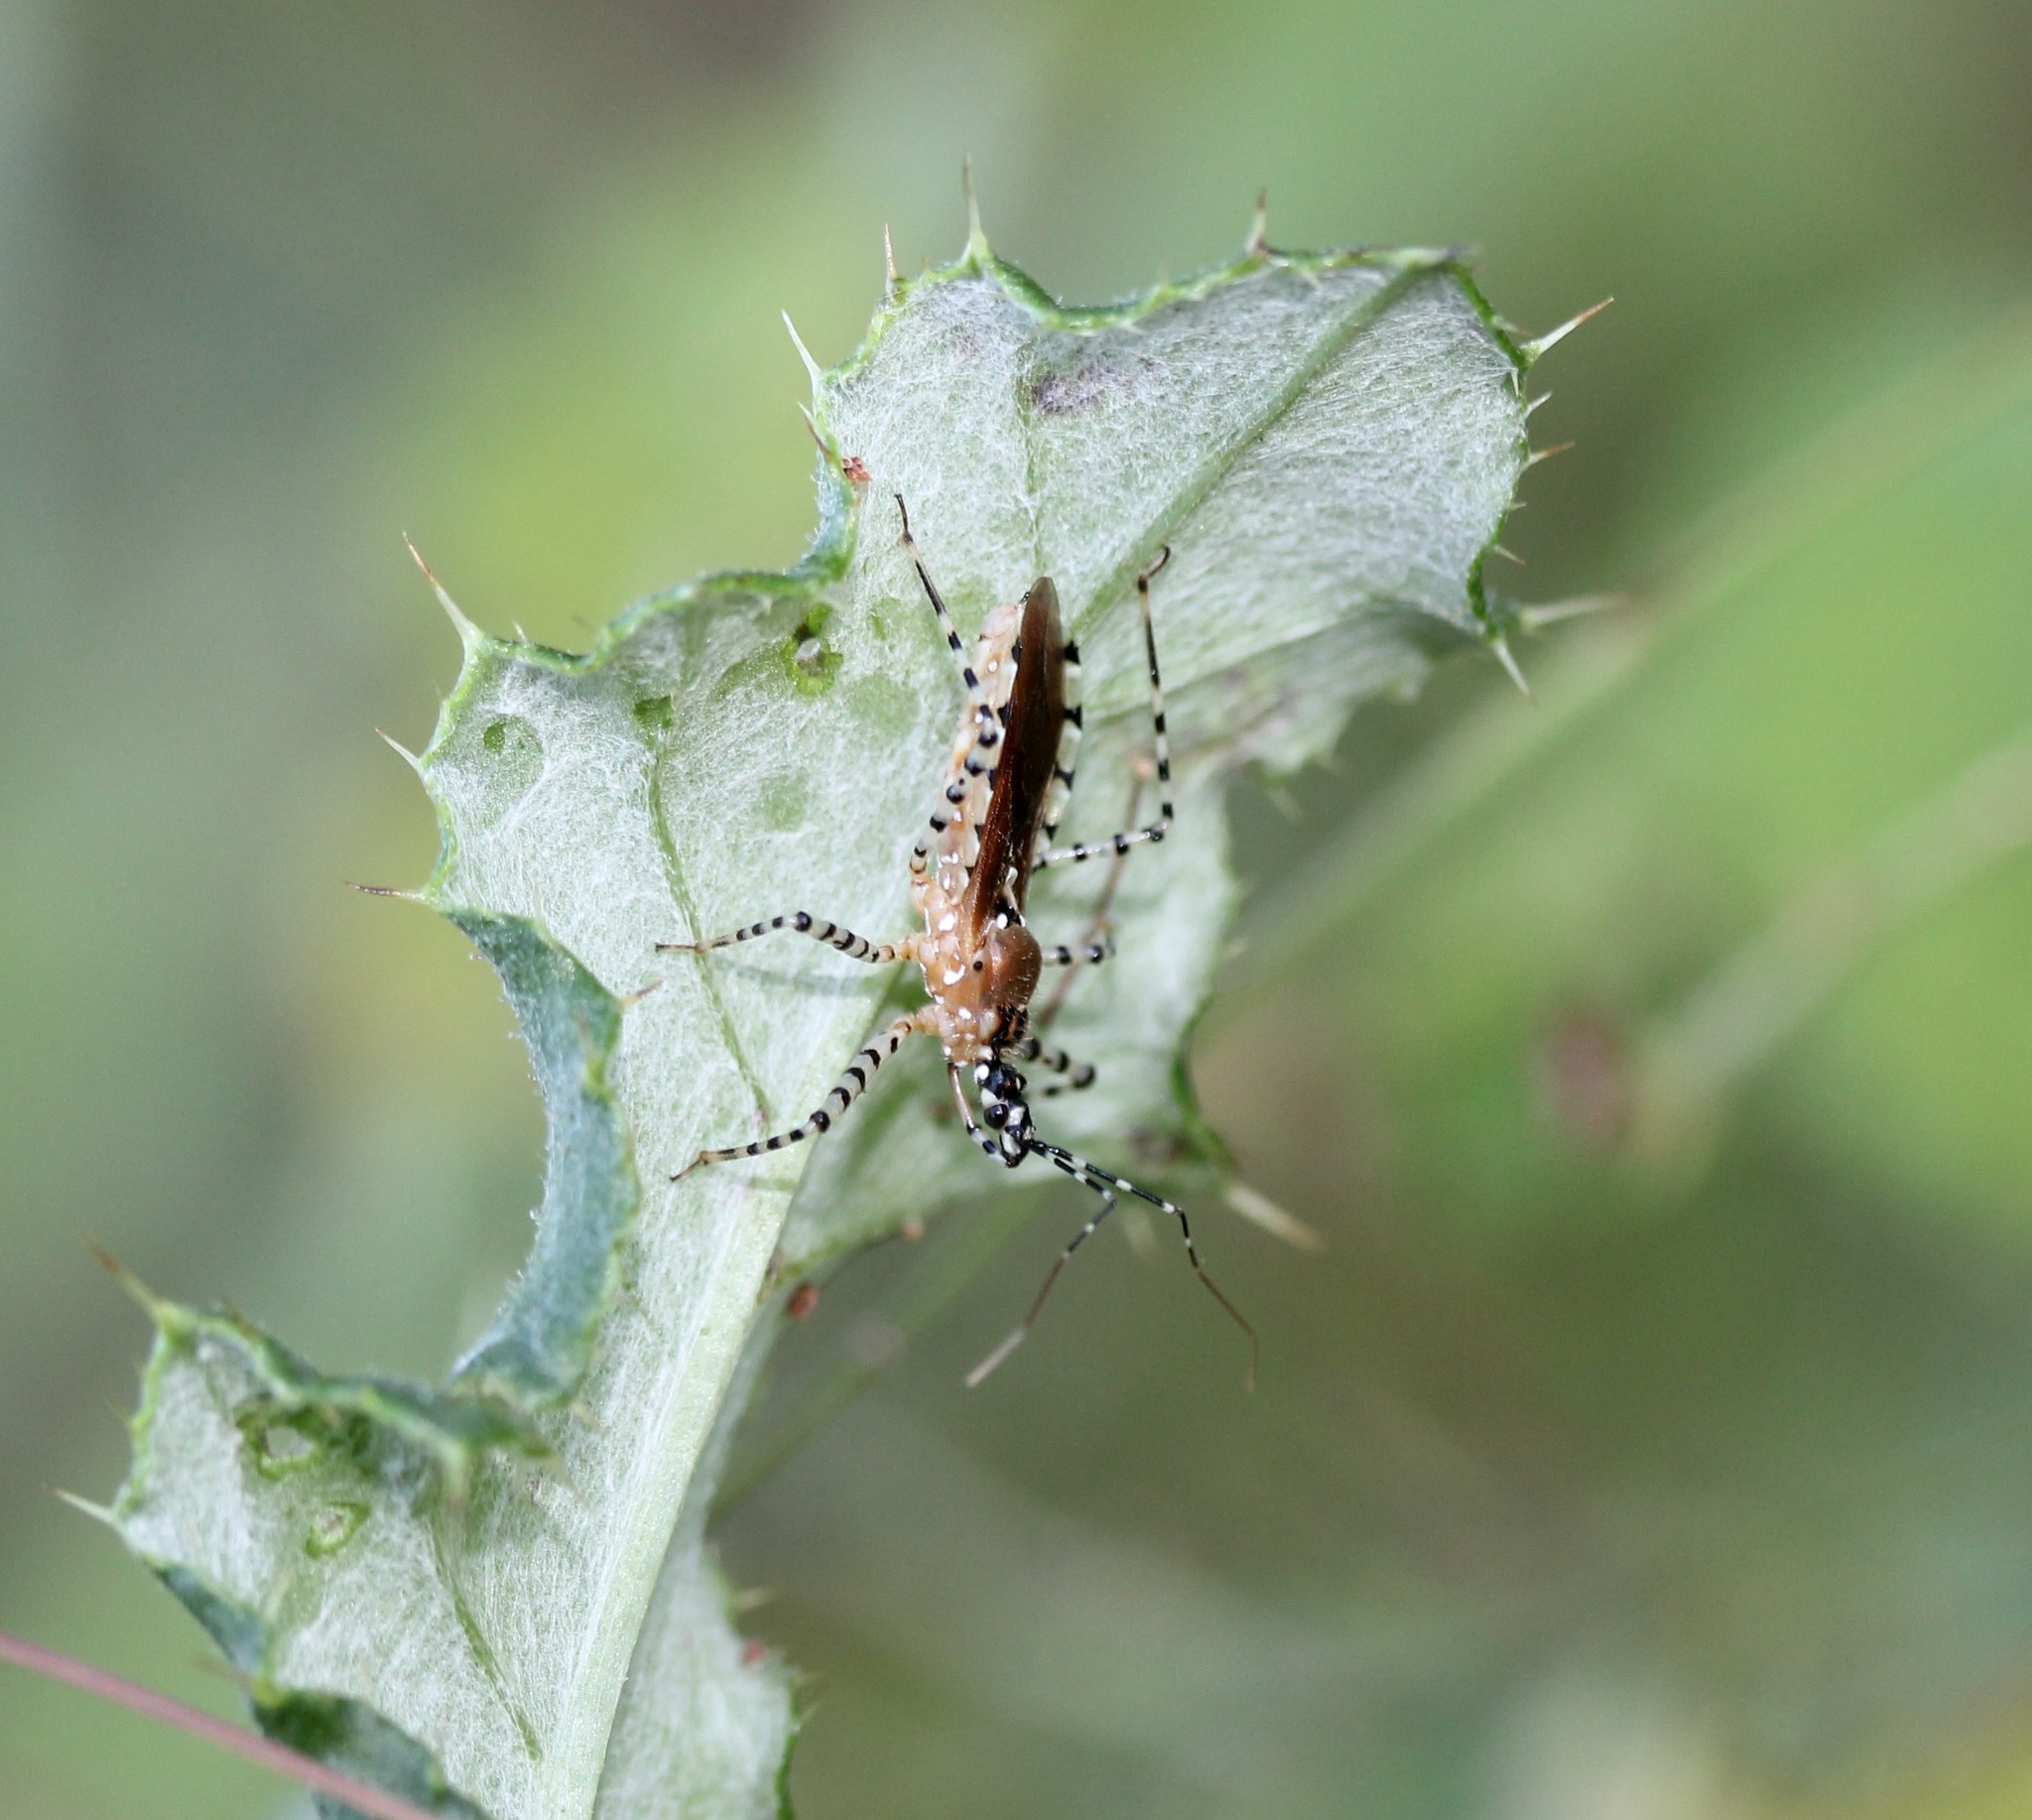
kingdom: Animalia
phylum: Arthropoda
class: Insecta
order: Hemiptera
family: Reduviidae
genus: Pselliopus
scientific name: Pselliopus cinctus
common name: Ringed assassin bug
